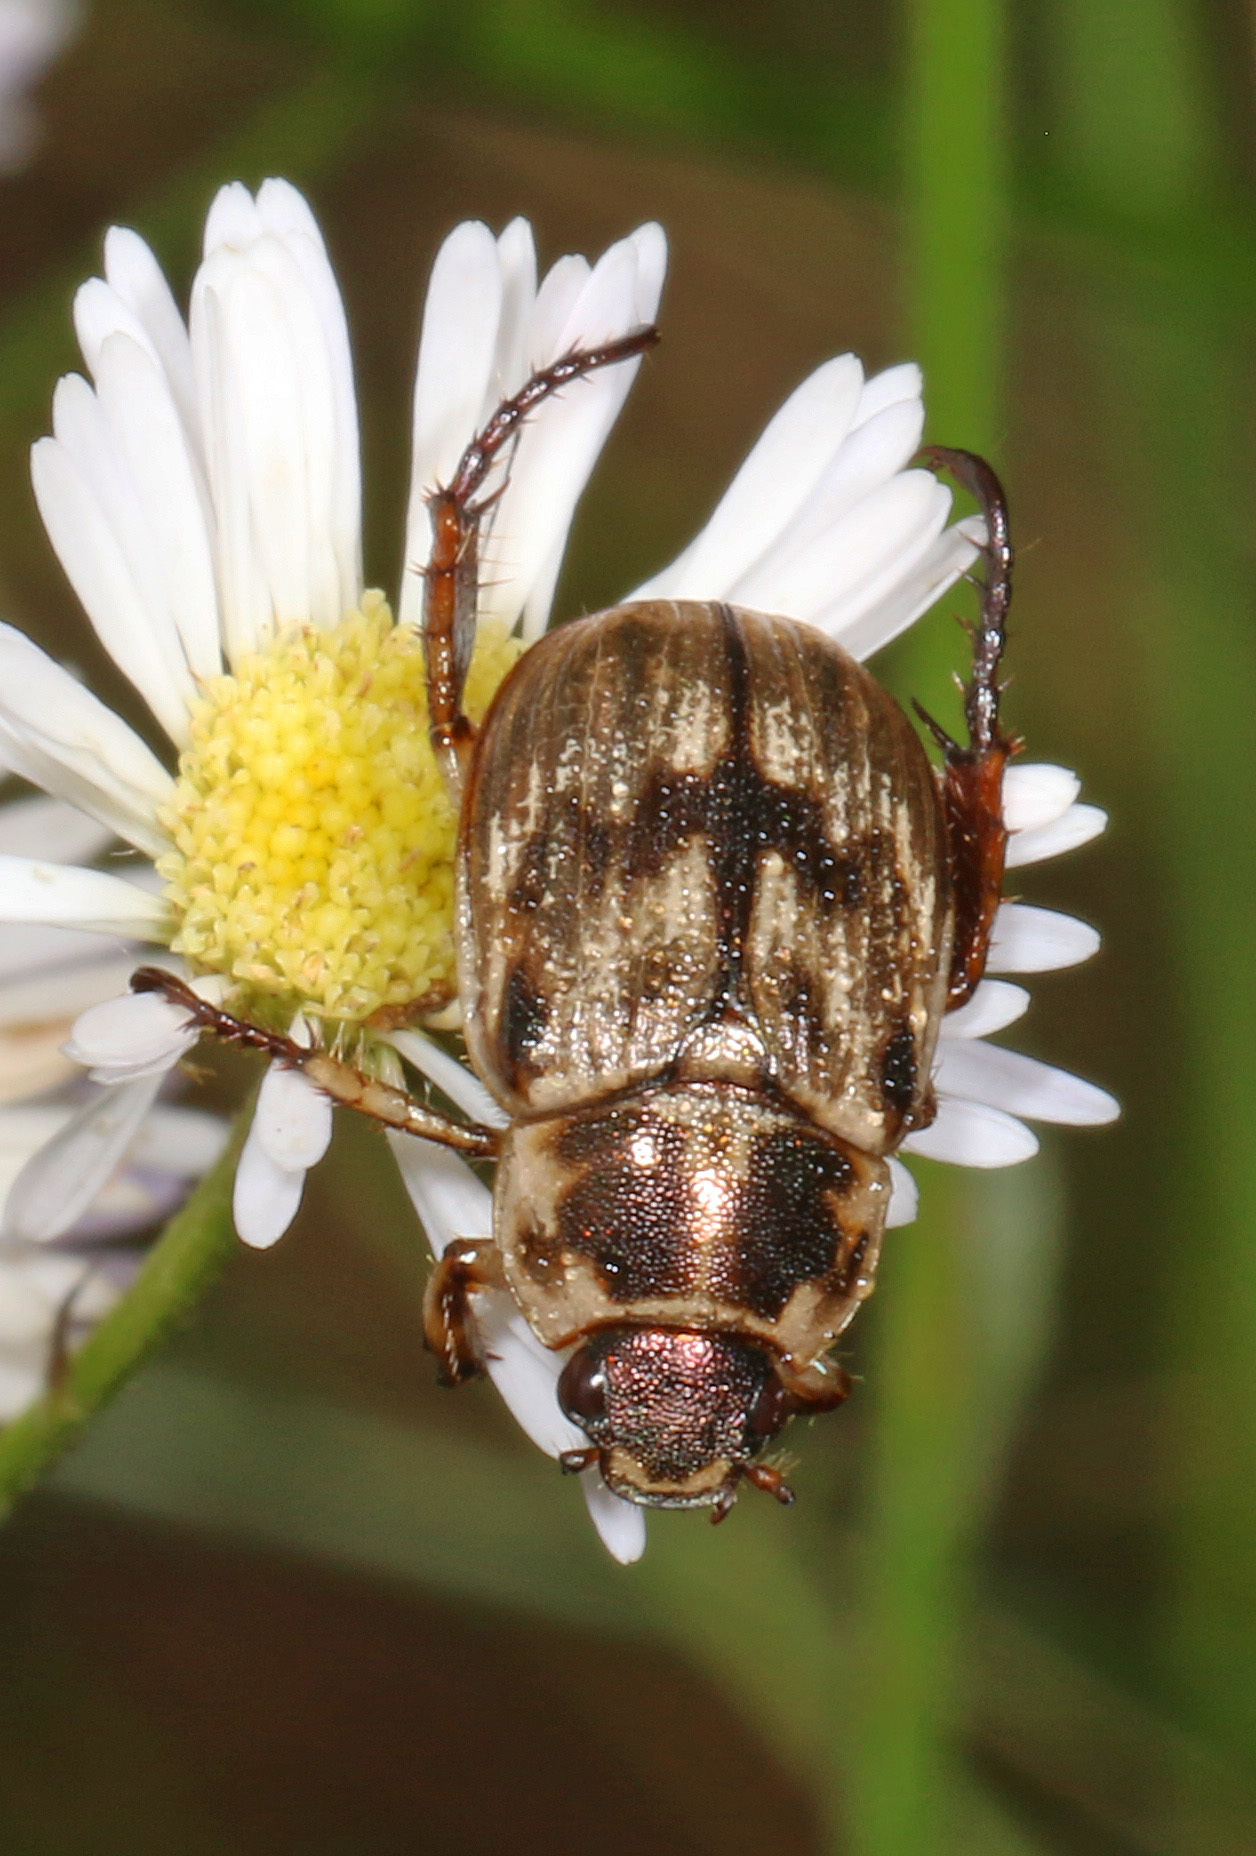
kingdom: Animalia
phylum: Arthropoda
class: Insecta
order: Coleoptera
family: Scarabaeidae
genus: Exomala
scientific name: Exomala orientalis
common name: Oriental beetle
